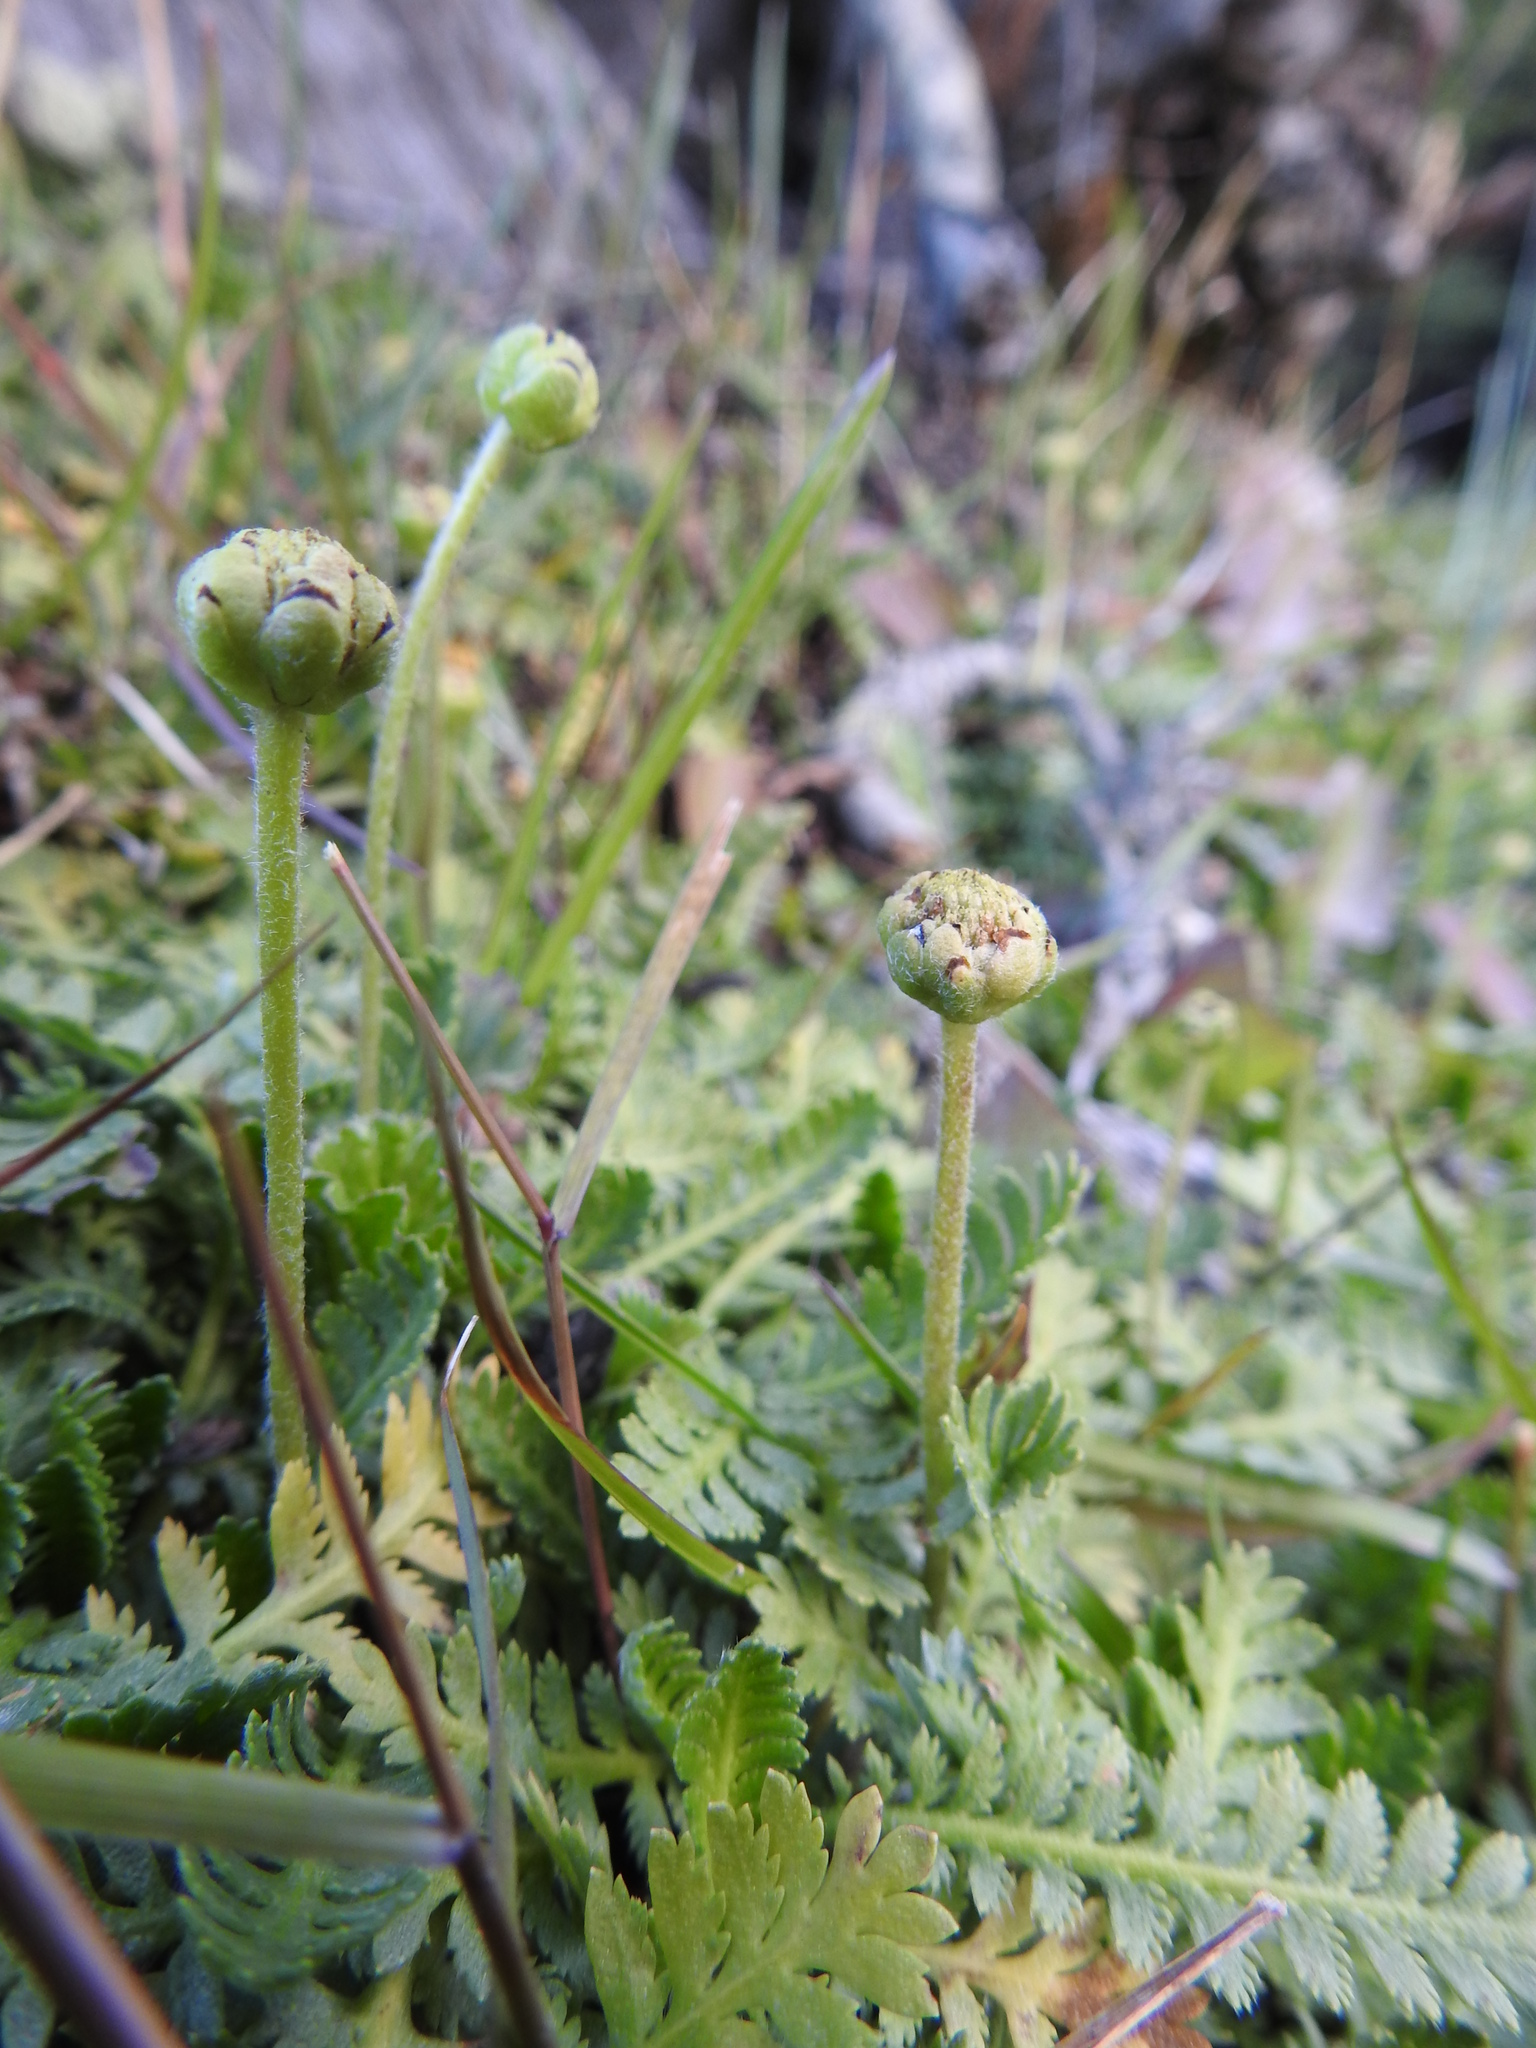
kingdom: Plantae
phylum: Tracheophyta
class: Magnoliopsida
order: Asterales
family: Asteraceae
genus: Leptinella
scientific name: Leptinella scariosa
